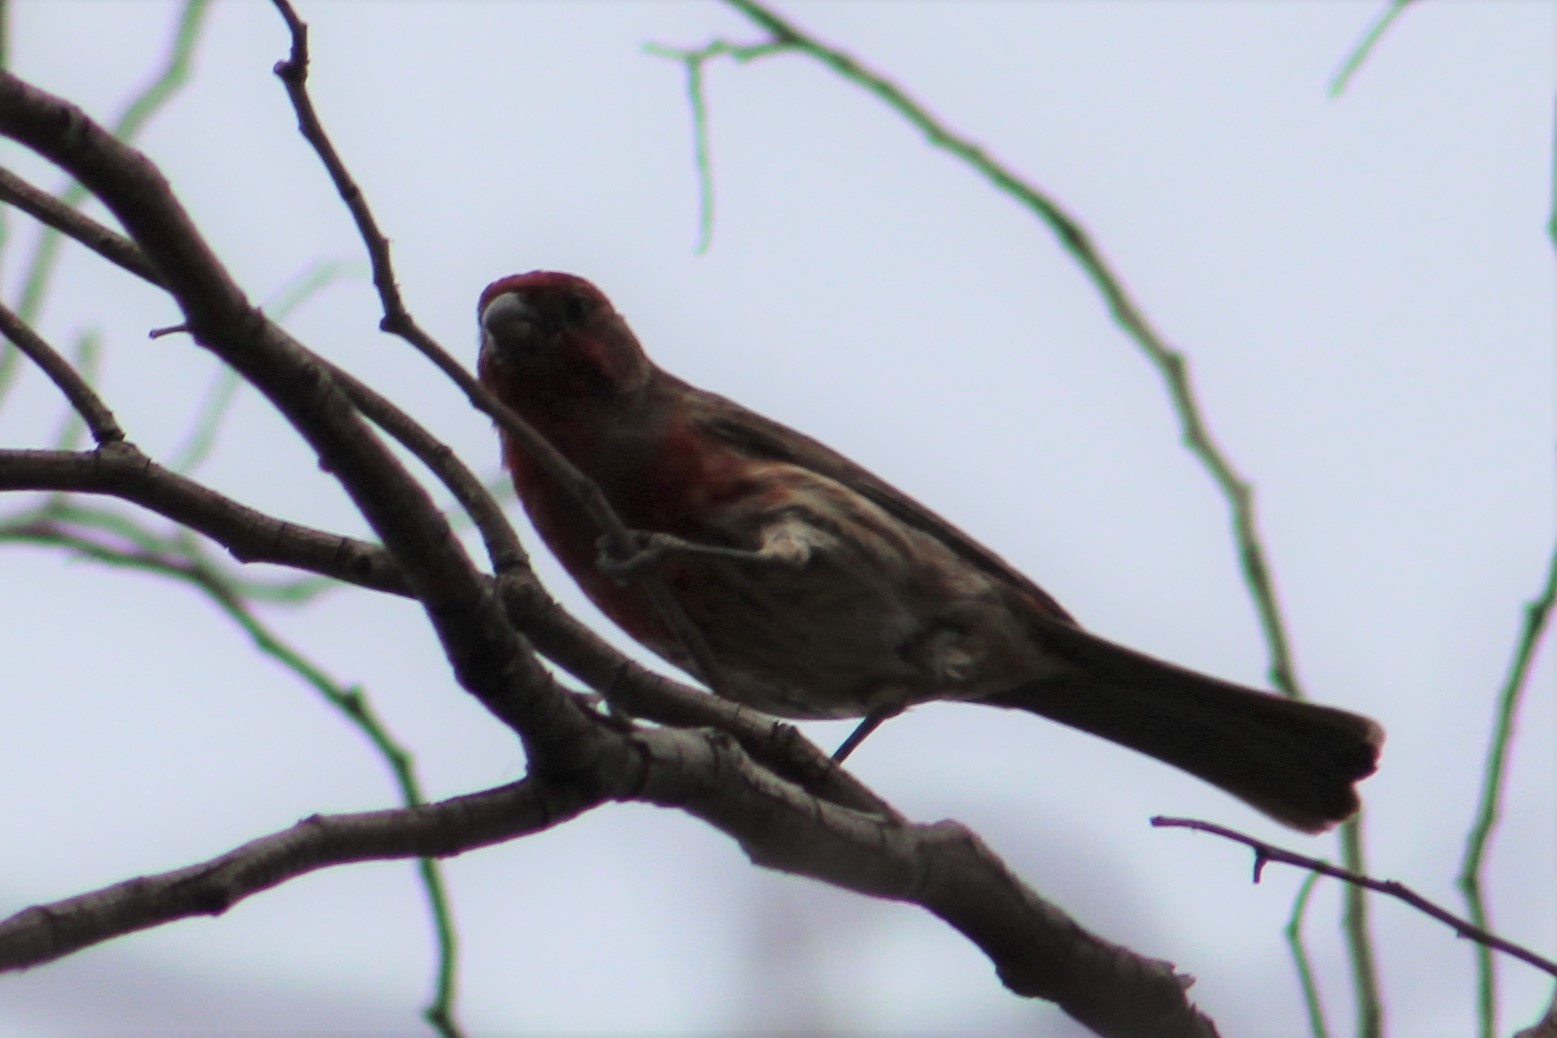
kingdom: Animalia
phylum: Chordata
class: Aves
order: Passeriformes
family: Fringillidae
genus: Haemorhous
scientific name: Haemorhous mexicanus
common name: House finch
